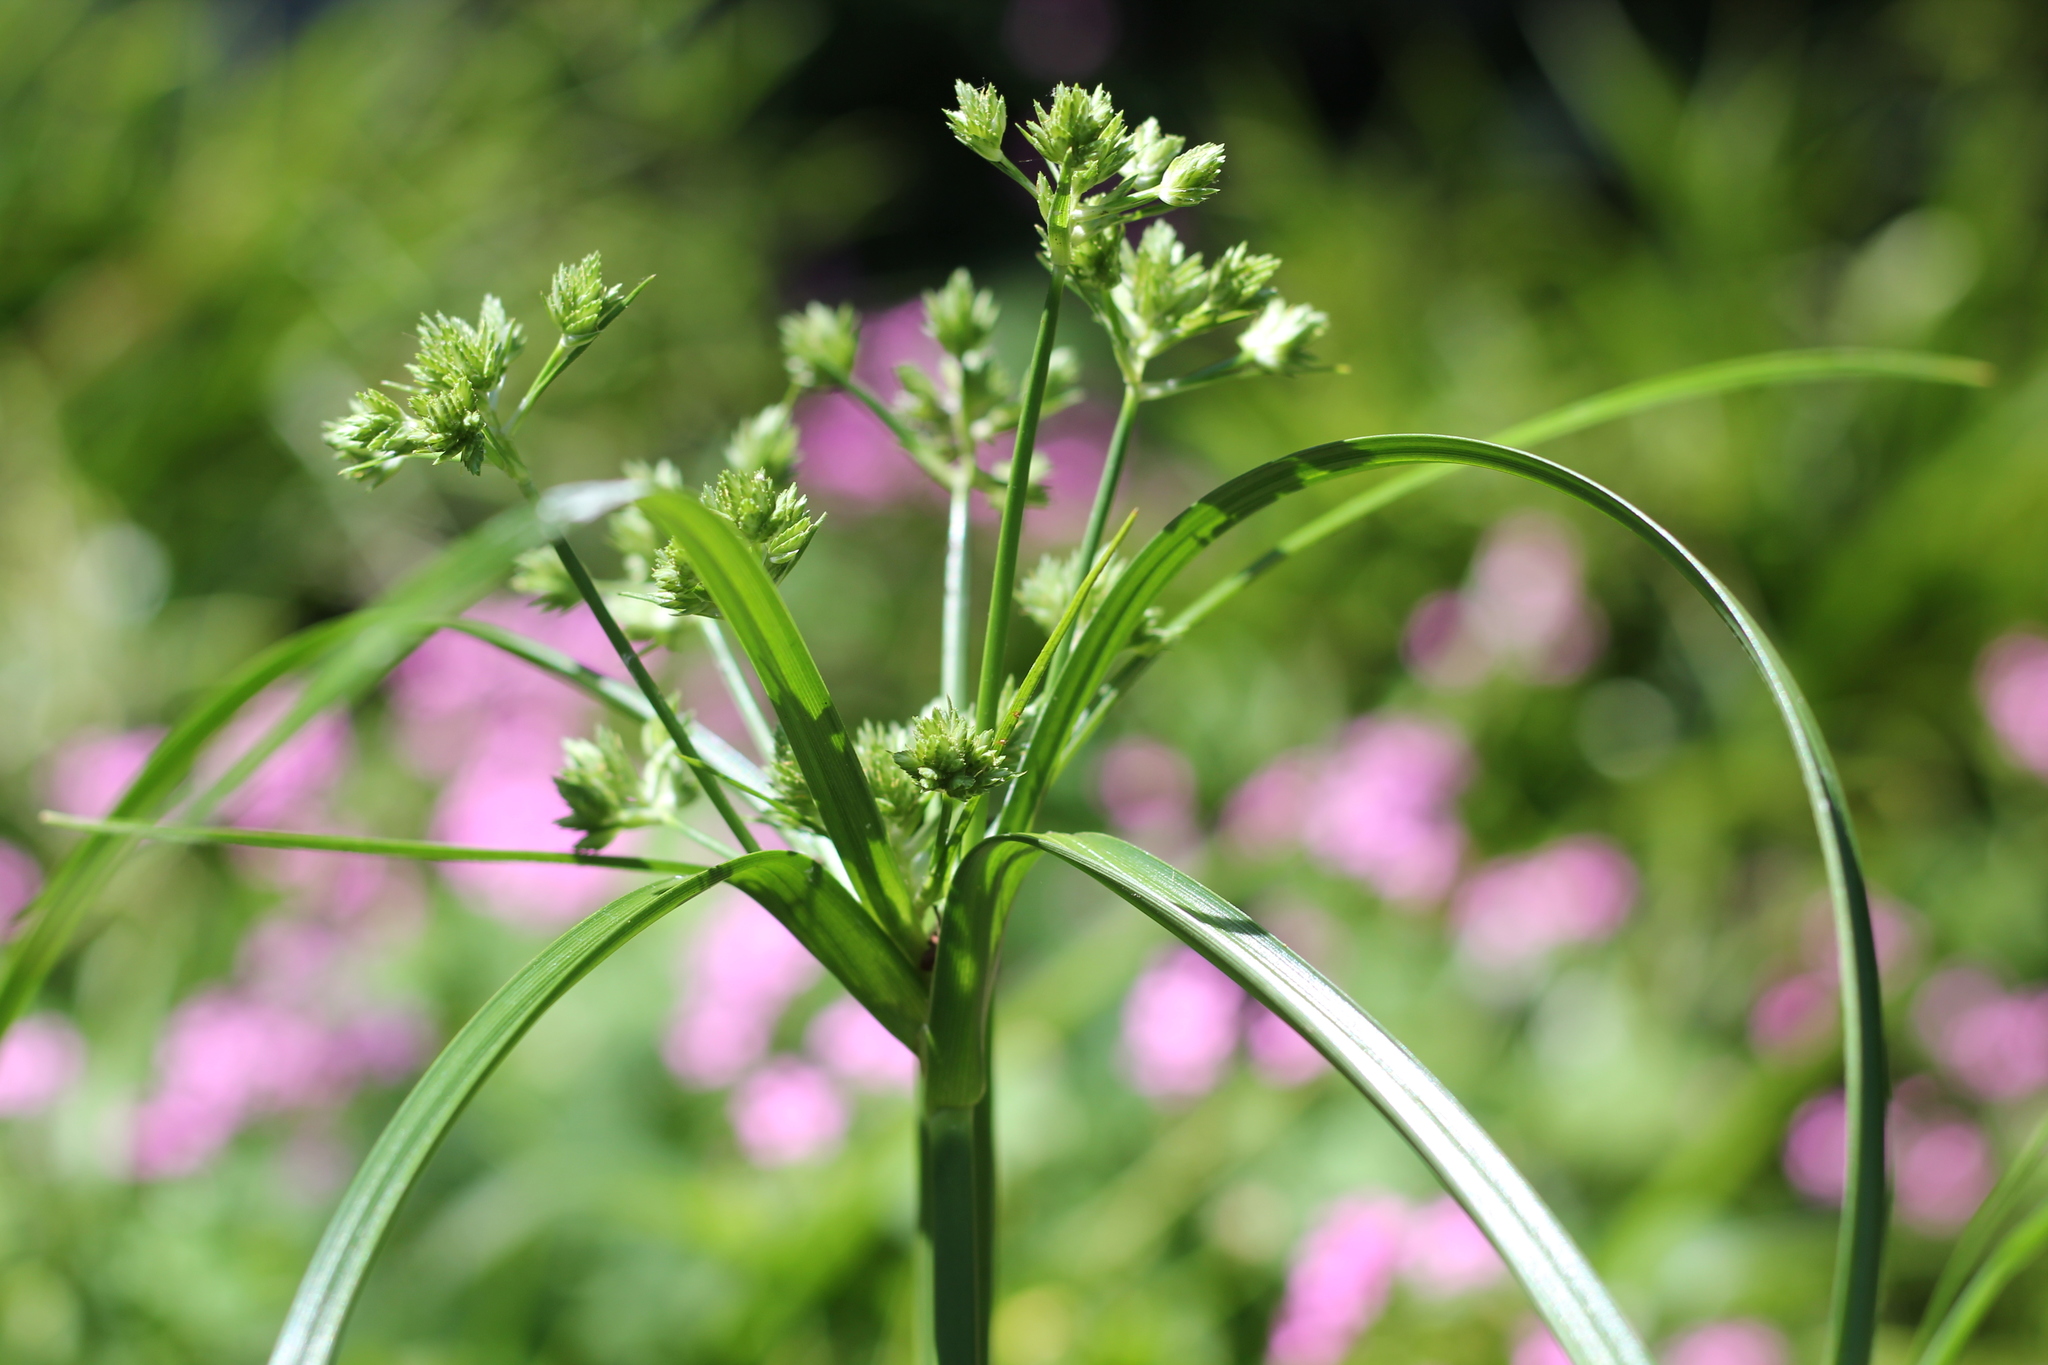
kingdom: Plantae
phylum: Tracheophyta
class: Liliopsida
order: Poales
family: Cyperaceae
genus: Cyperus
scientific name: Cyperus eragrostis
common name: Tall flatsedge
